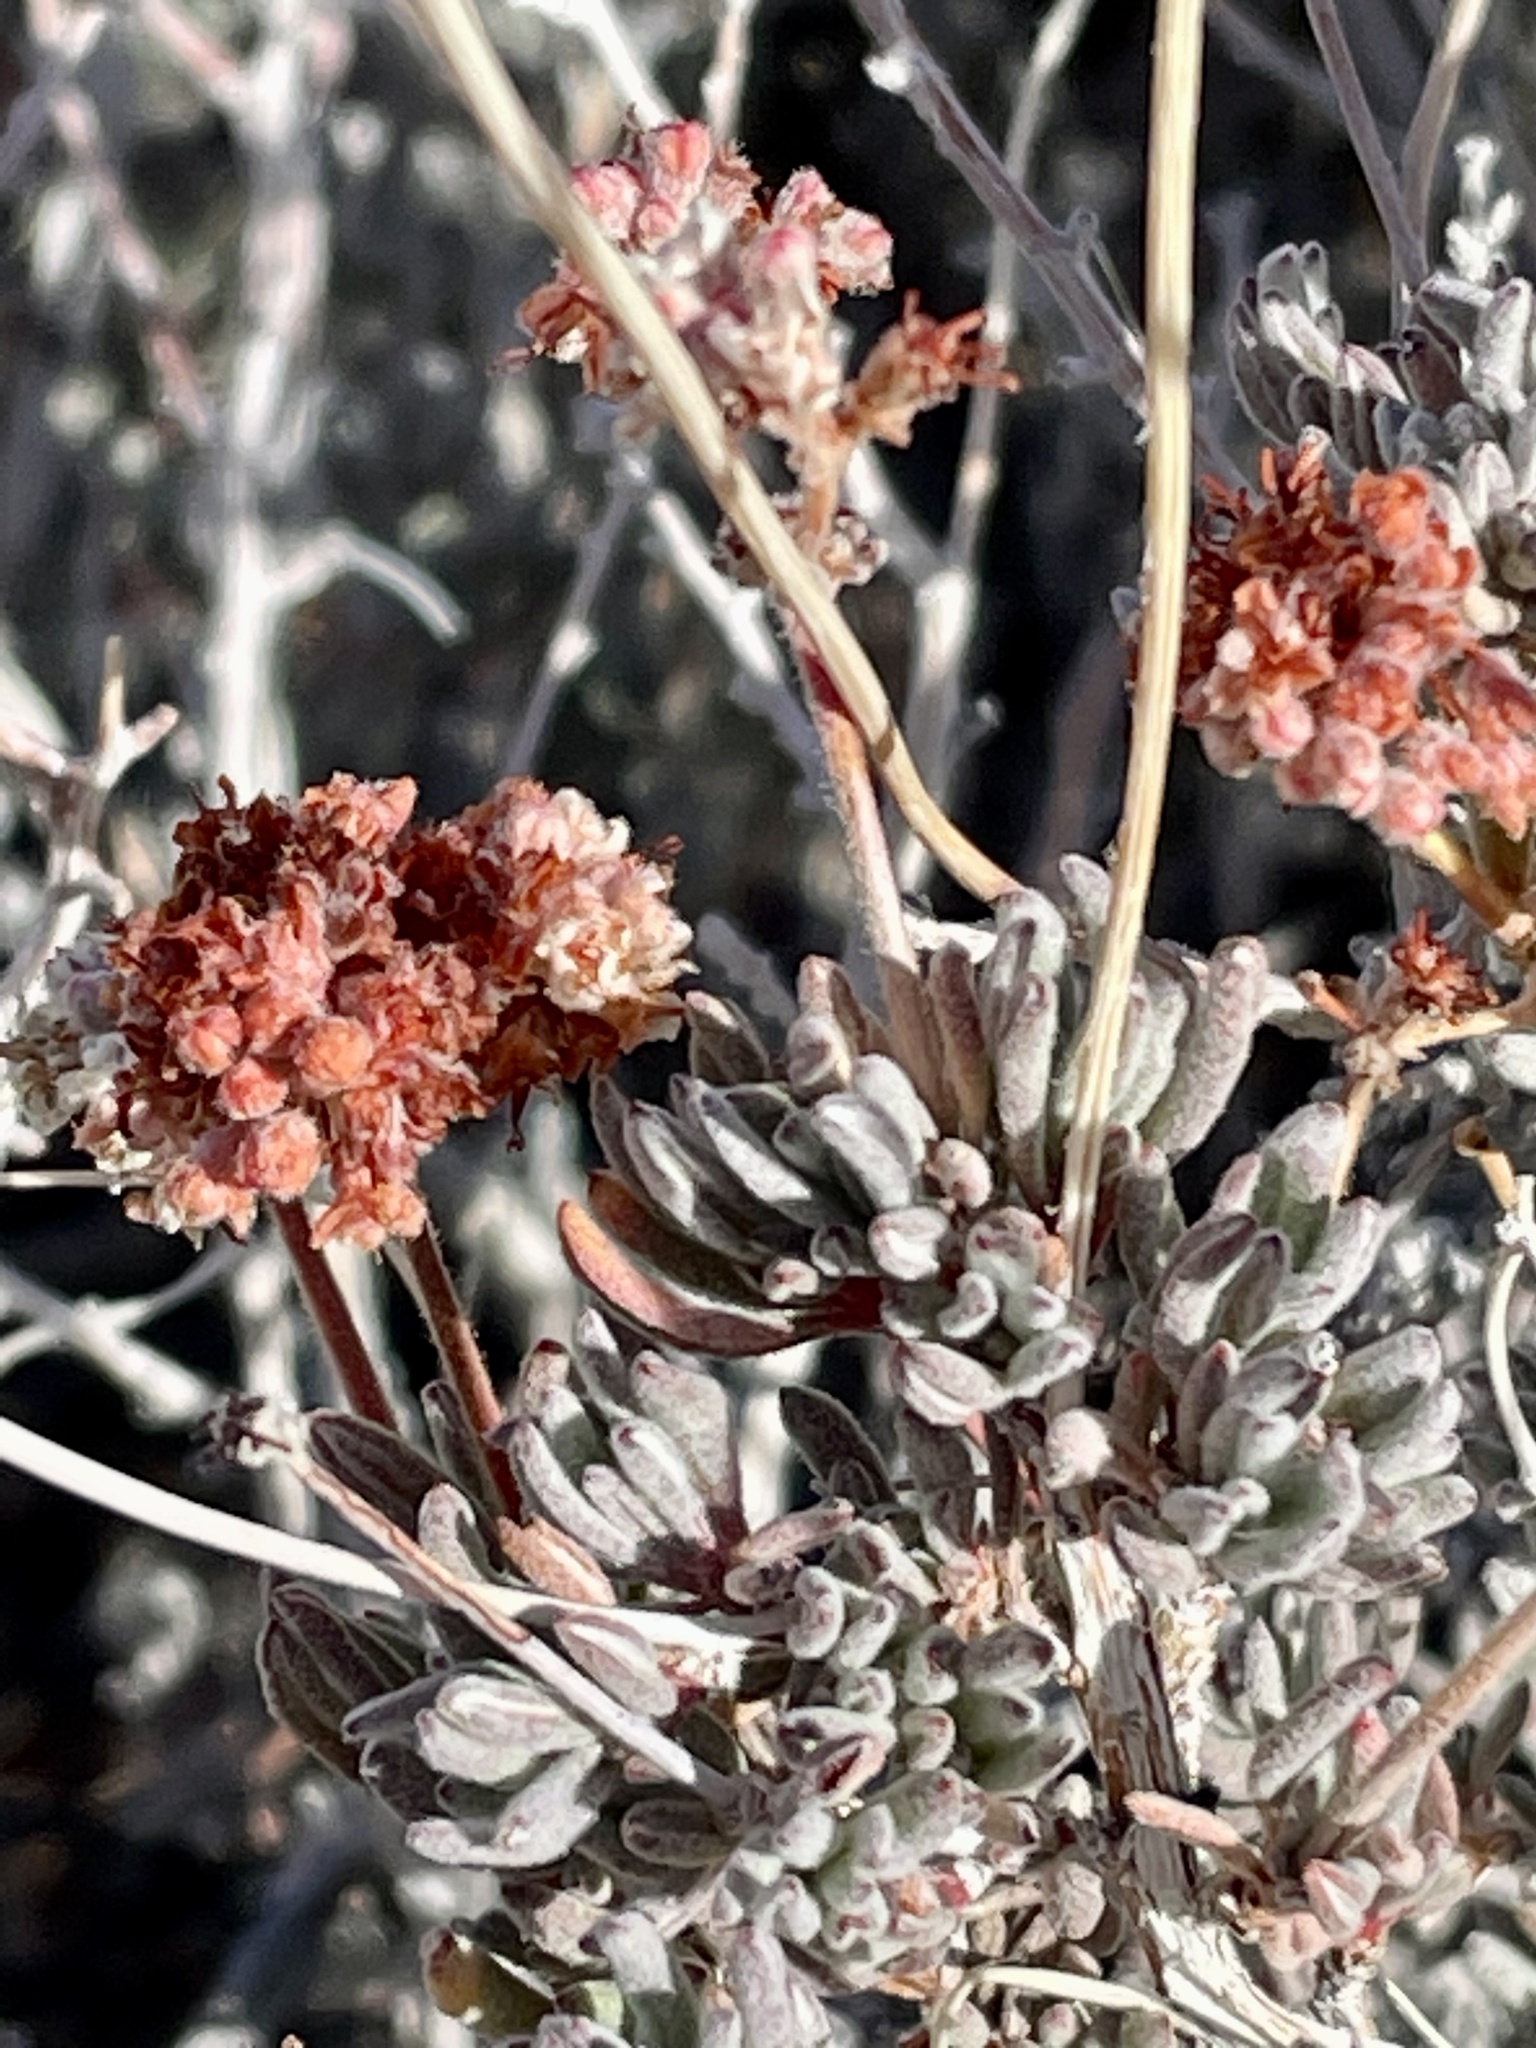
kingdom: Plantae
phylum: Tracheophyta
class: Magnoliopsida
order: Caryophyllales
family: Polygonaceae
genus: Eriogonum
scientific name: Eriogonum fasciculatum
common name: California wild buckwheat
